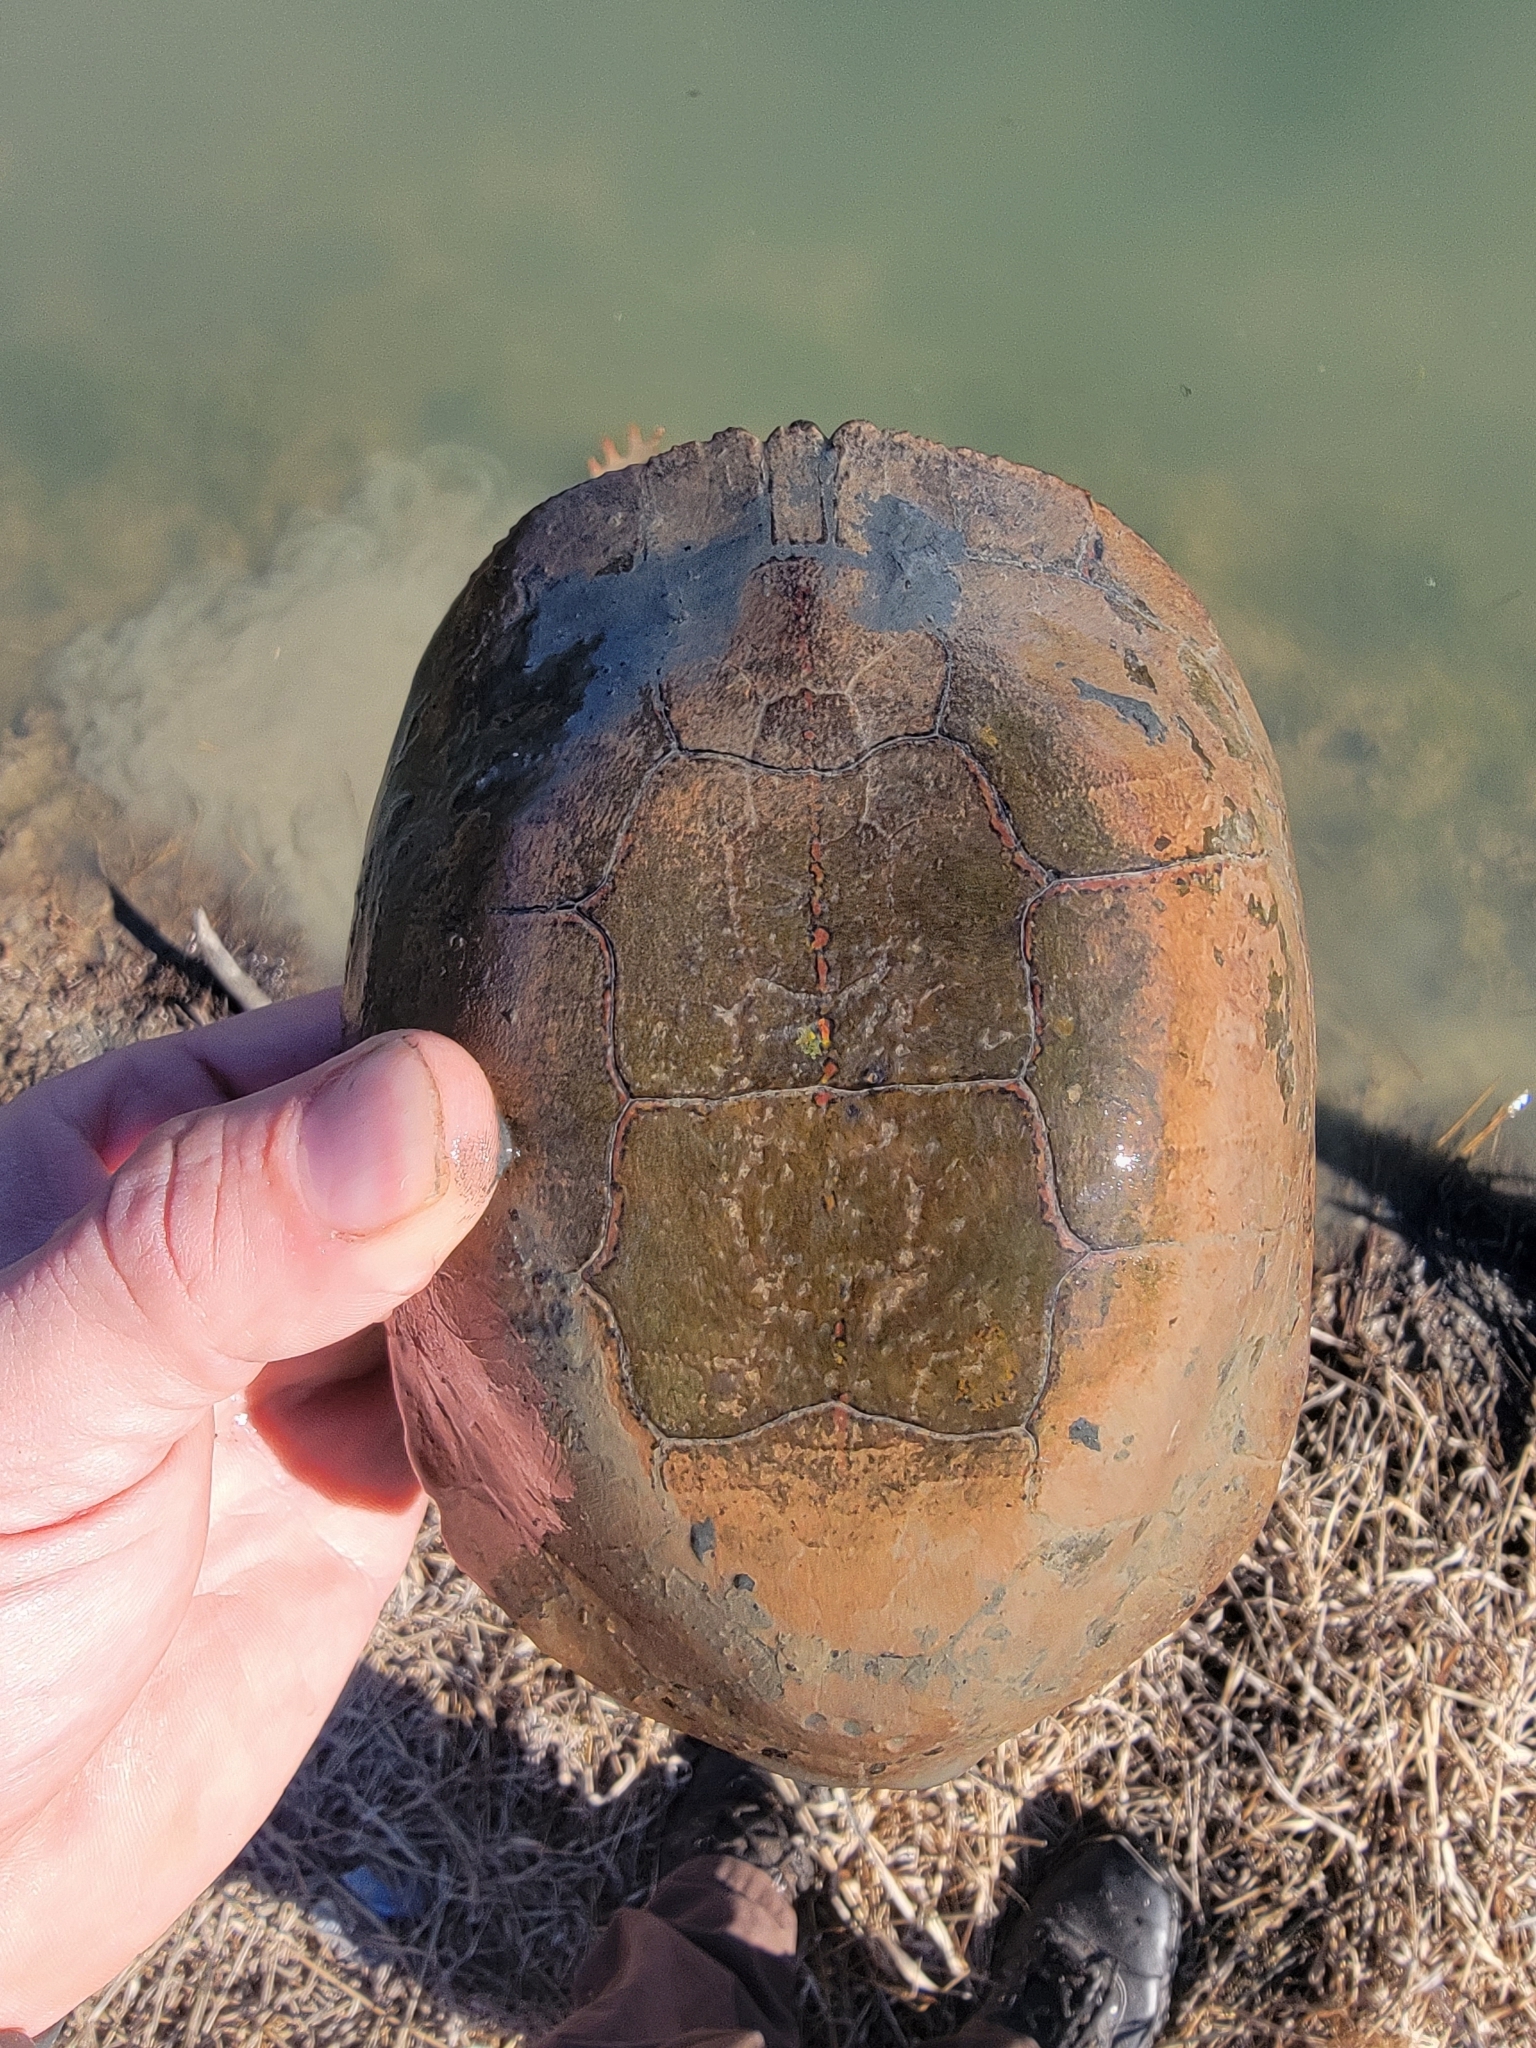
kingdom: Animalia
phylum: Chordata
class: Testudines
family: Emydidae
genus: Chrysemys
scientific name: Chrysemys picta
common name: Painted turtle
